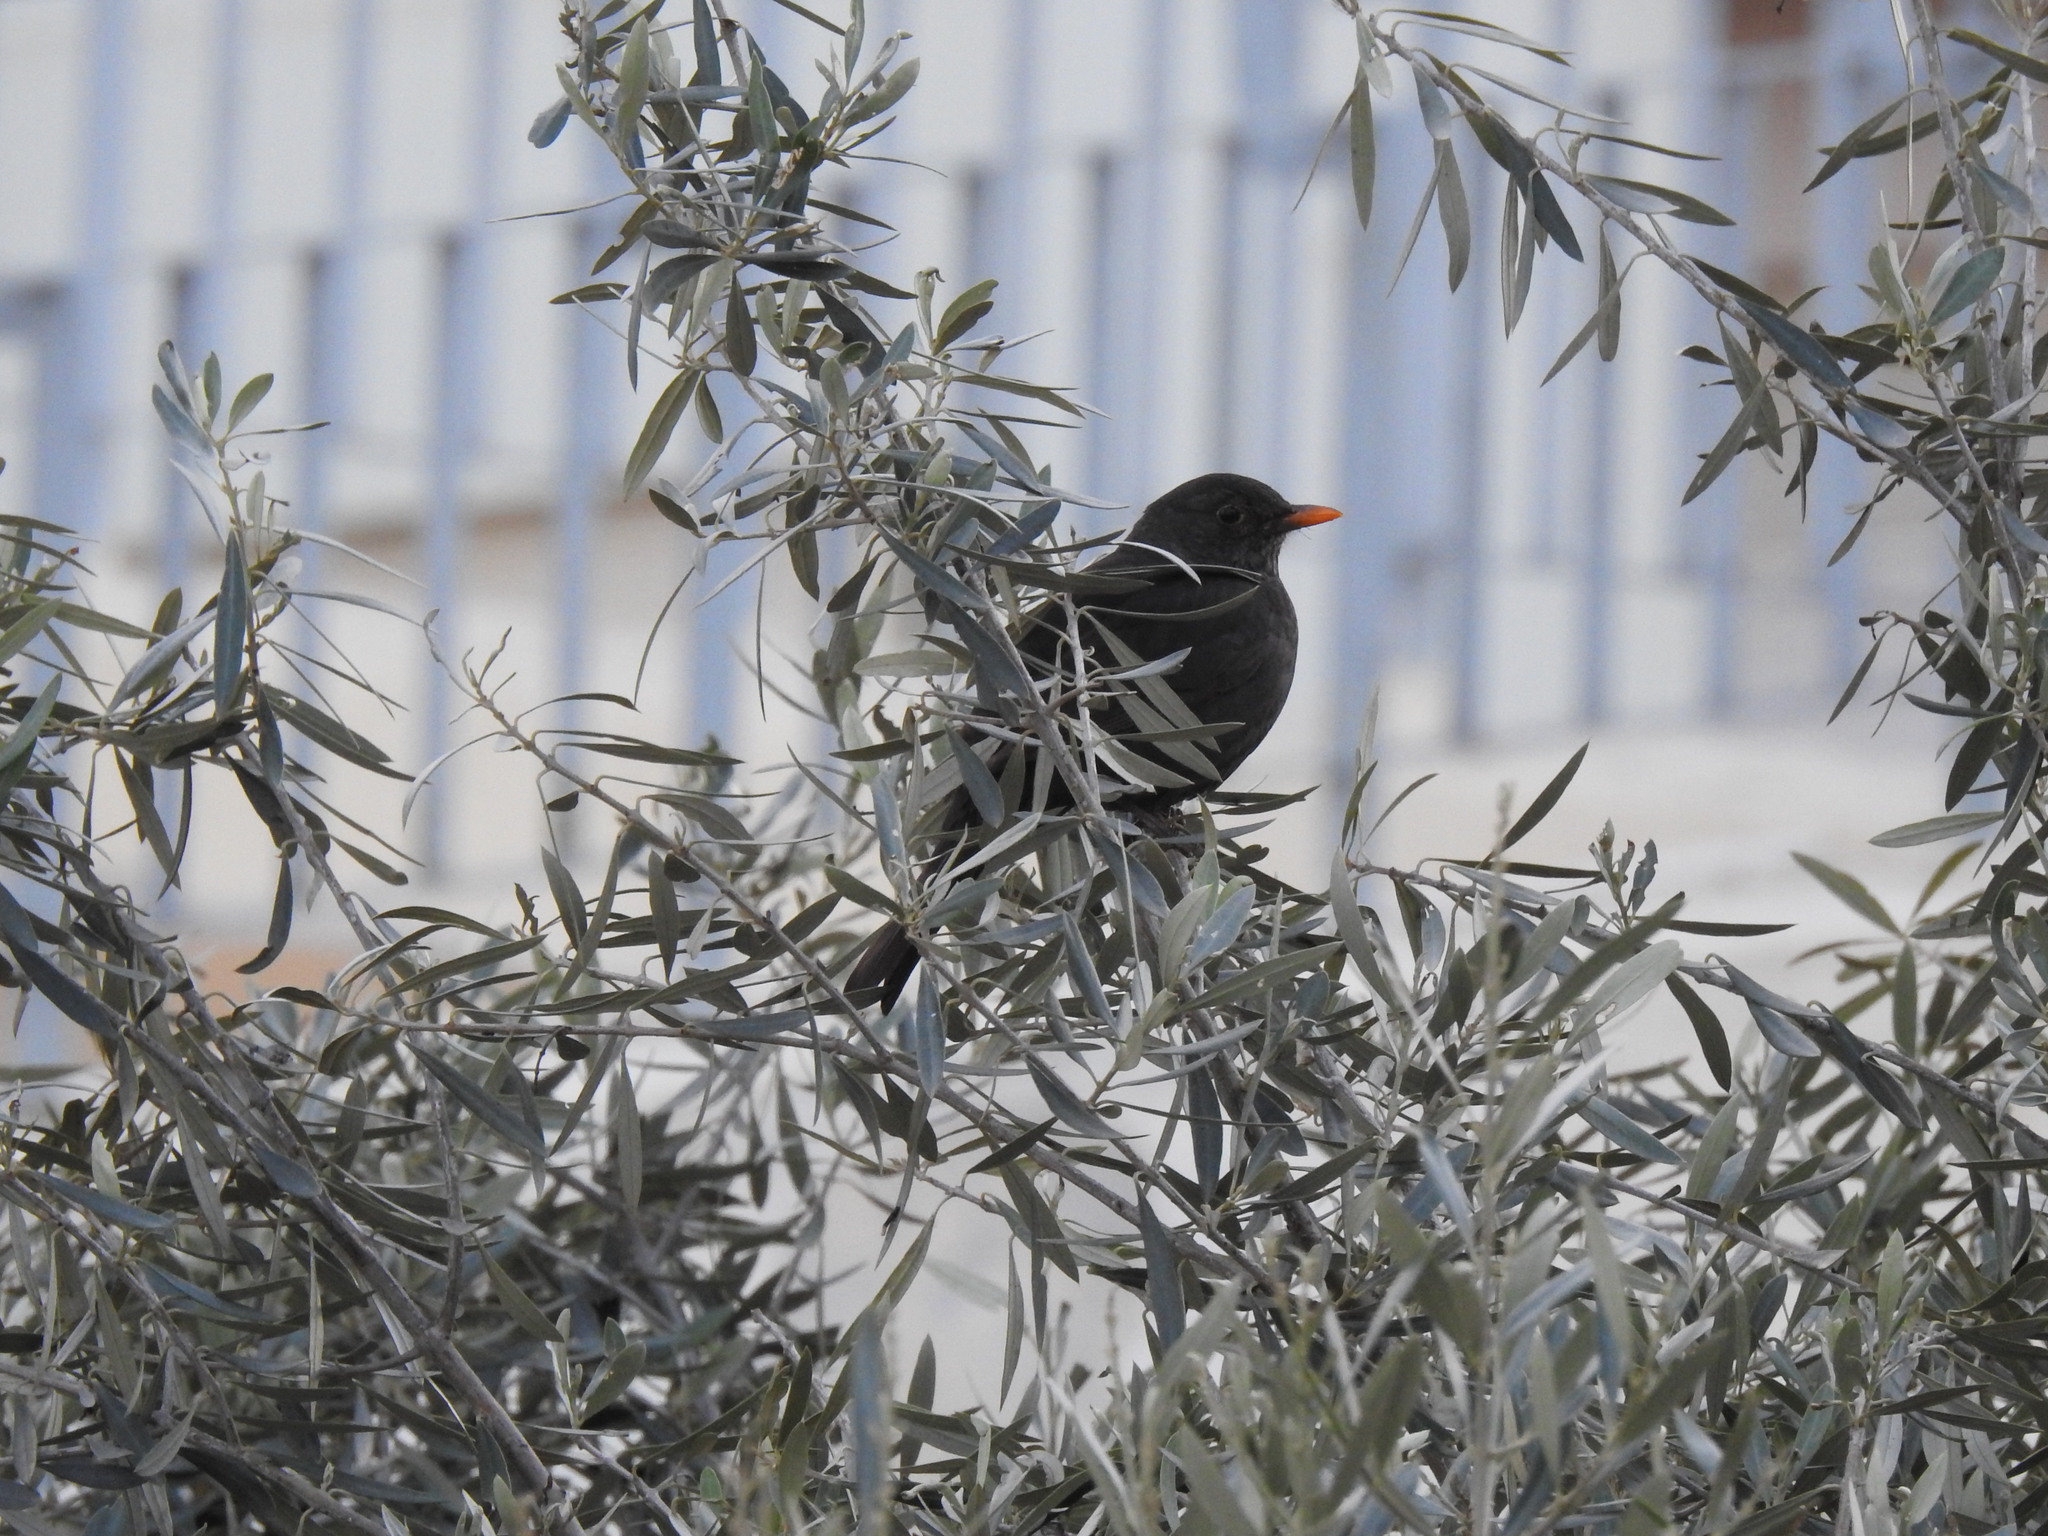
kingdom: Animalia
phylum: Chordata
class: Aves
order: Passeriformes
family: Turdidae
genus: Turdus
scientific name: Turdus merula
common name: Common blackbird
